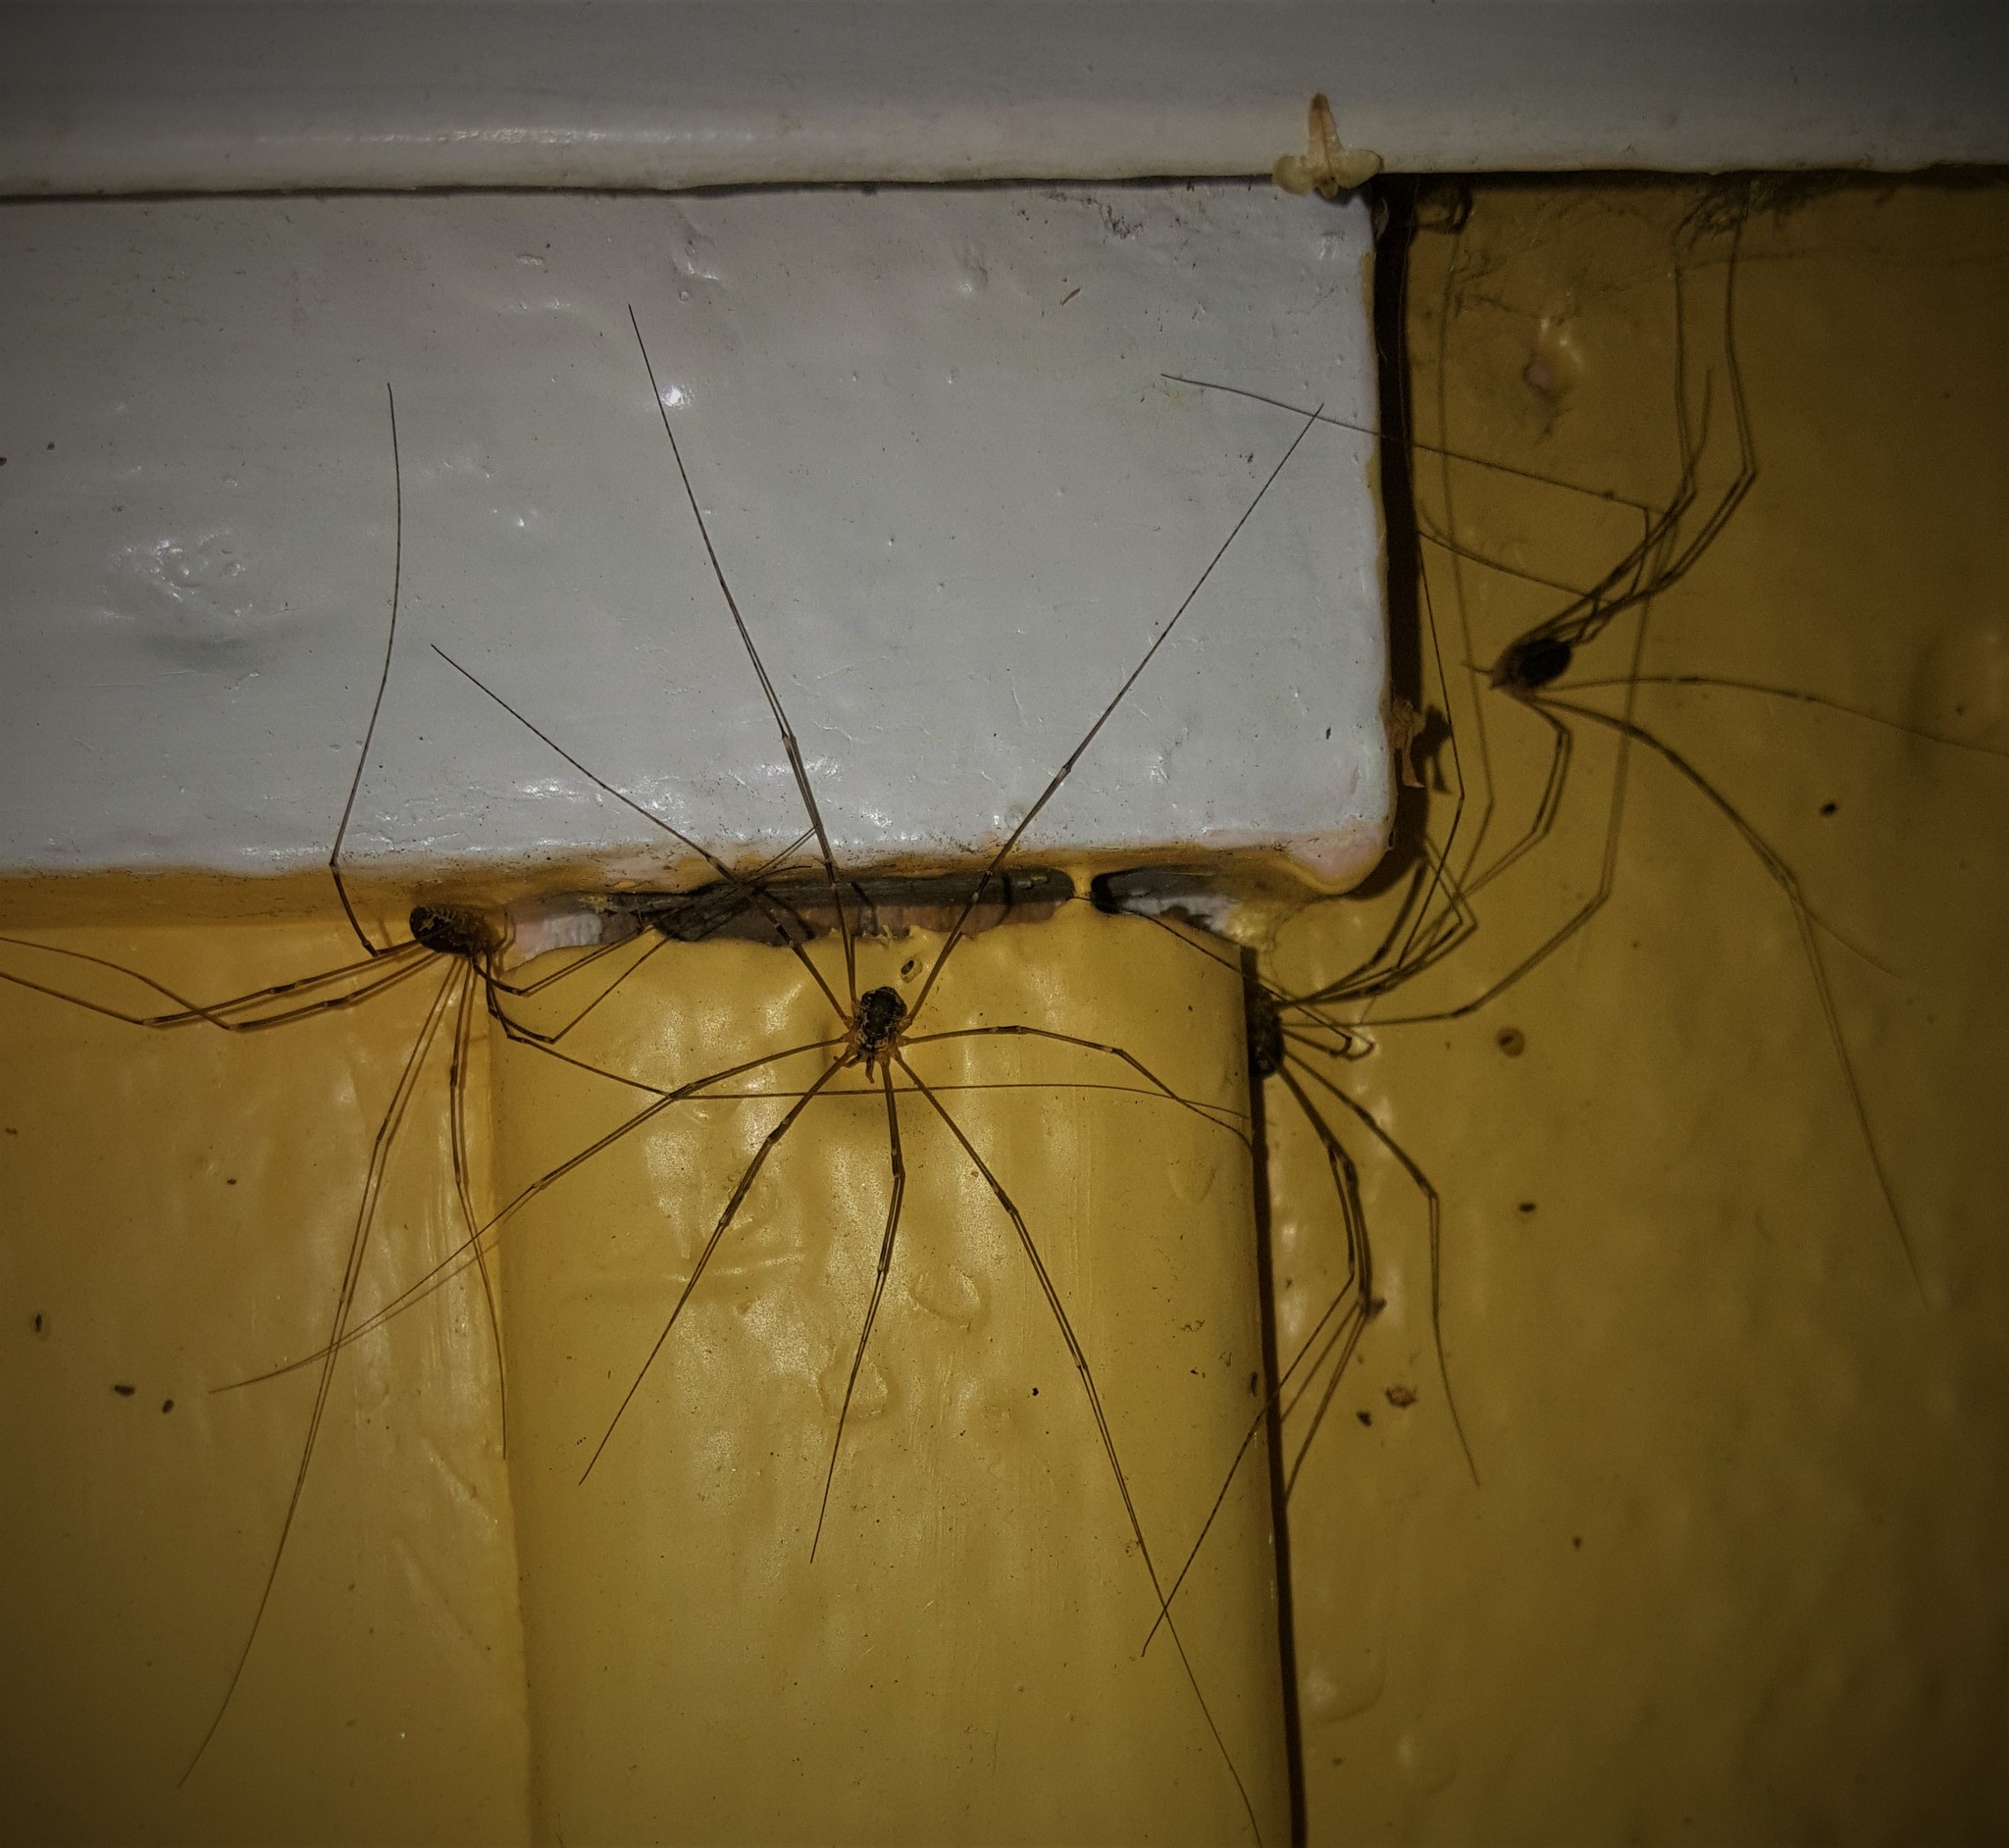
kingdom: Animalia
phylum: Arthropoda
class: Arachnida
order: Opiliones
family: Sclerosomatidae
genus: Leiobunum
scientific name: Leiobunum gracile
